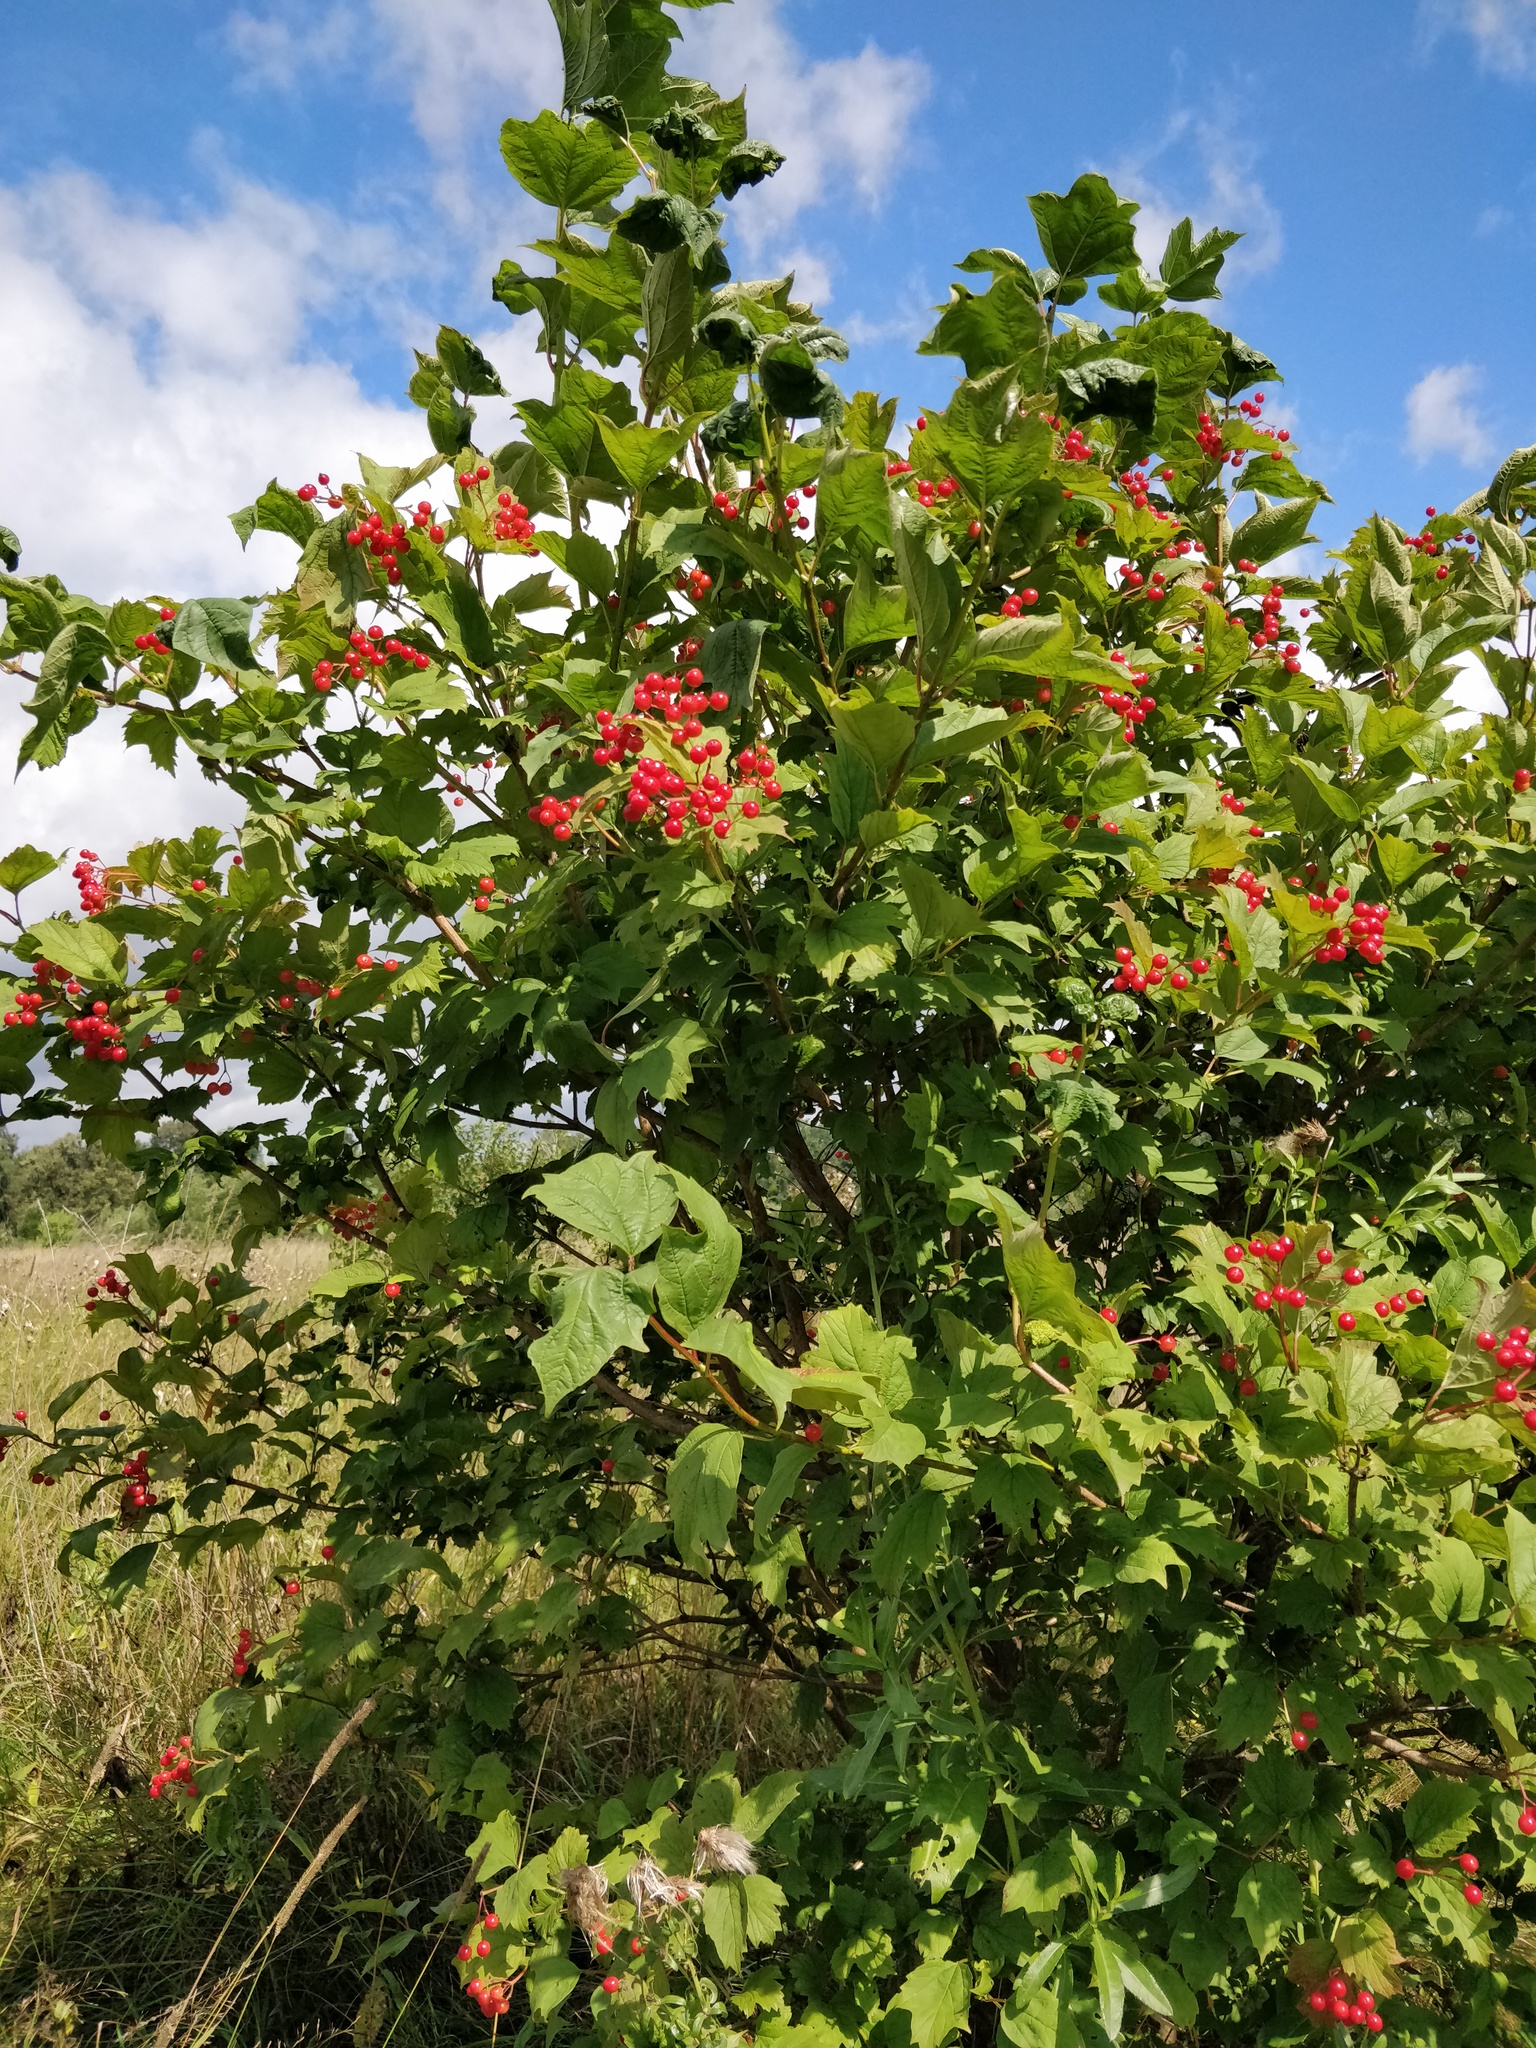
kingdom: Plantae
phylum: Tracheophyta
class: Magnoliopsida
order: Dipsacales
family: Viburnaceae
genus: Viburnum
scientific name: Viburnum opulus
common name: Guelder-rose
